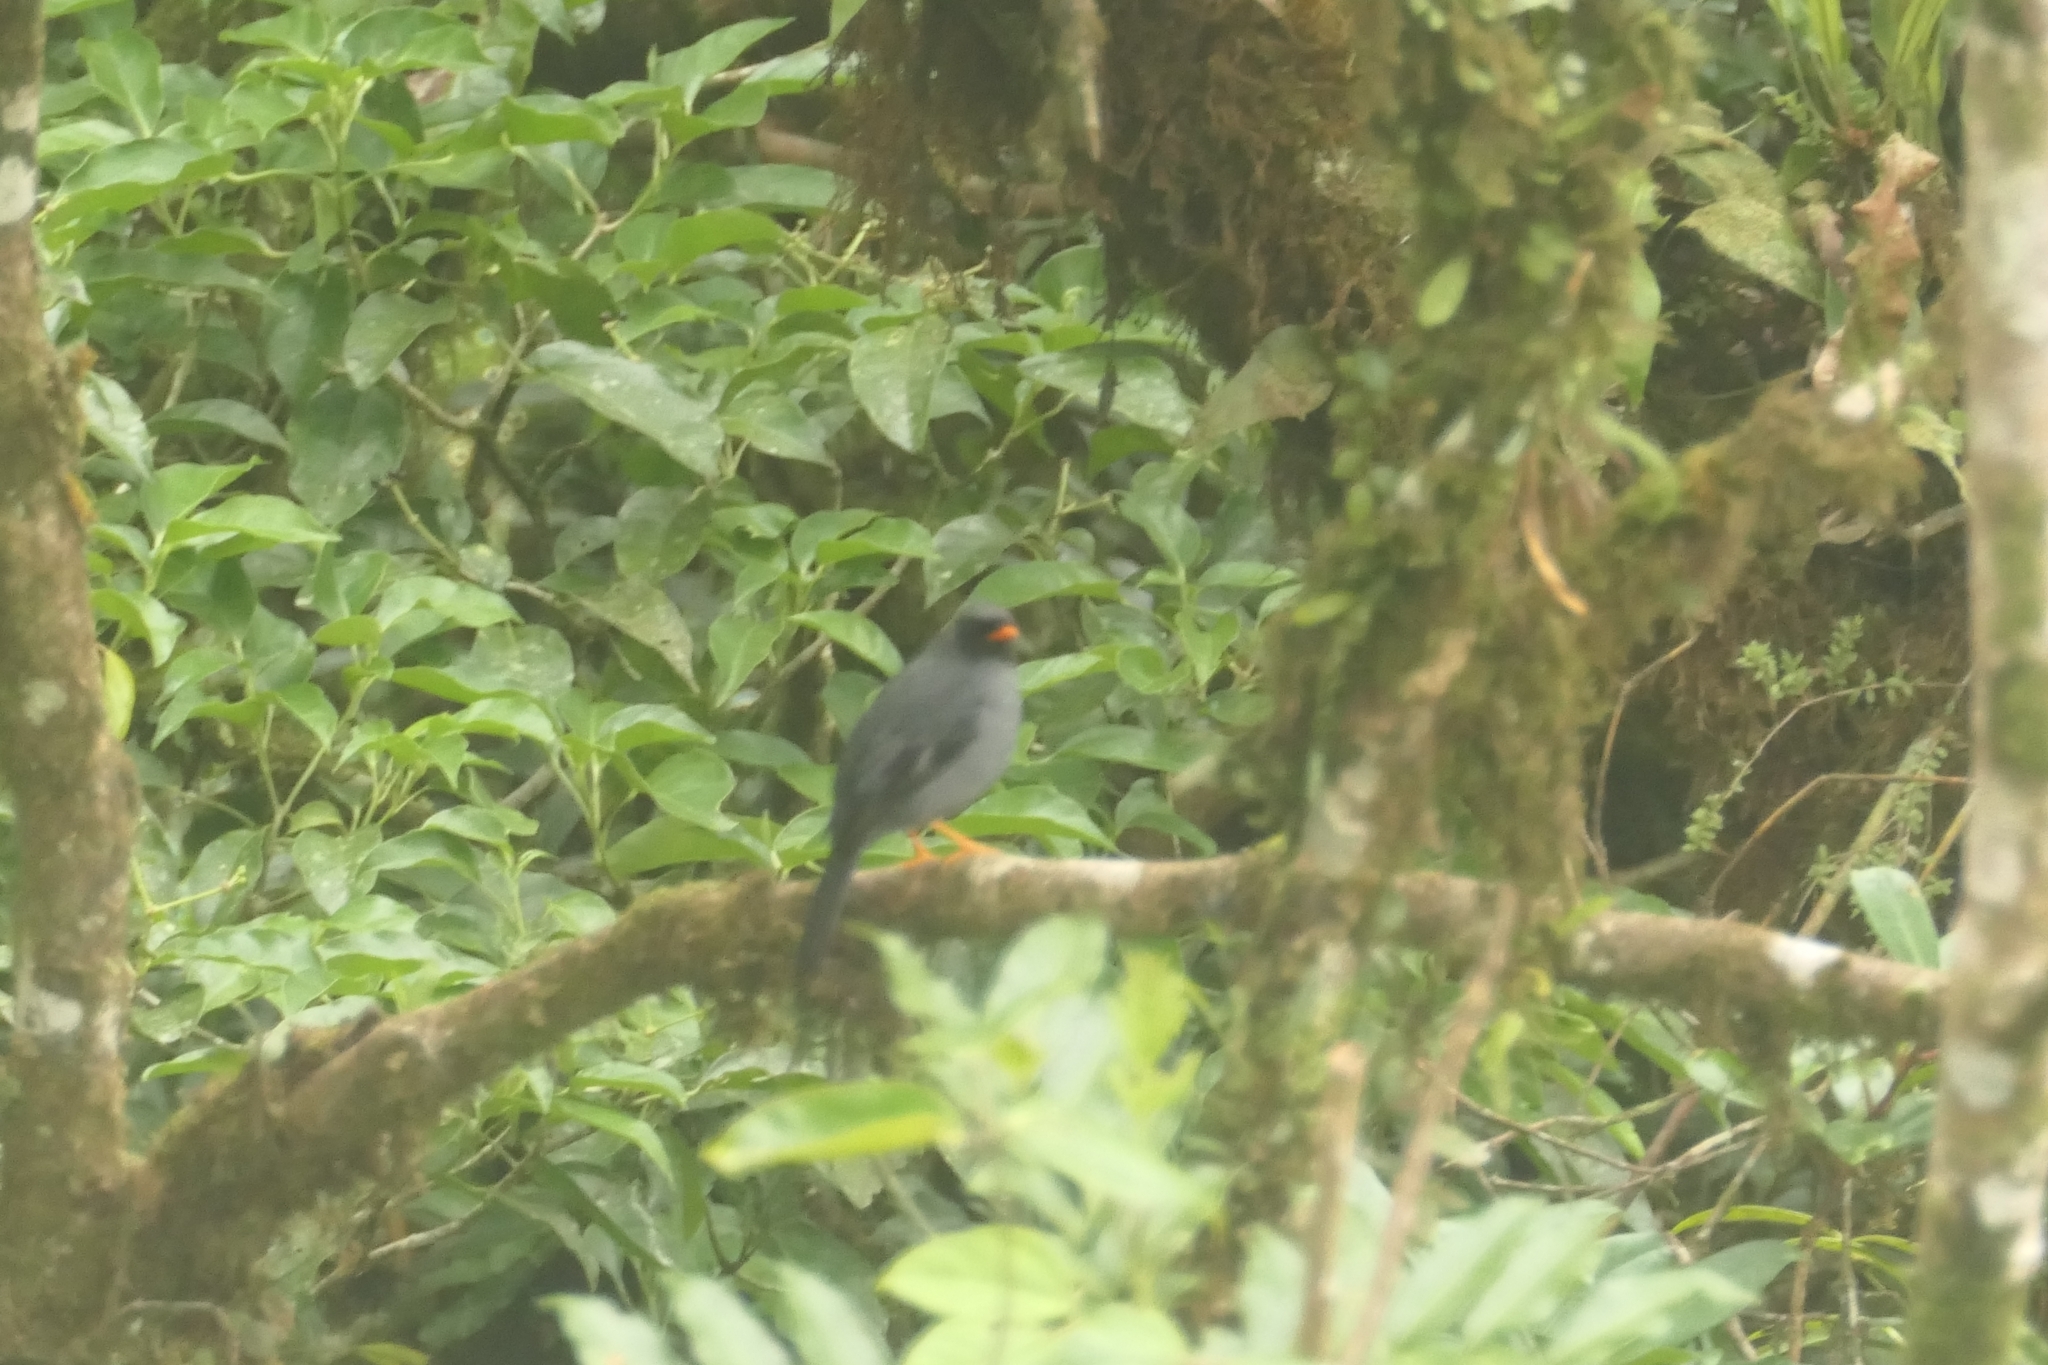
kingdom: Animalia
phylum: Chordata
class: Aves
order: Passeriformes
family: Turdidae
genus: Myadestes
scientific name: Myadestes melanops
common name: Black-faced solitaire
